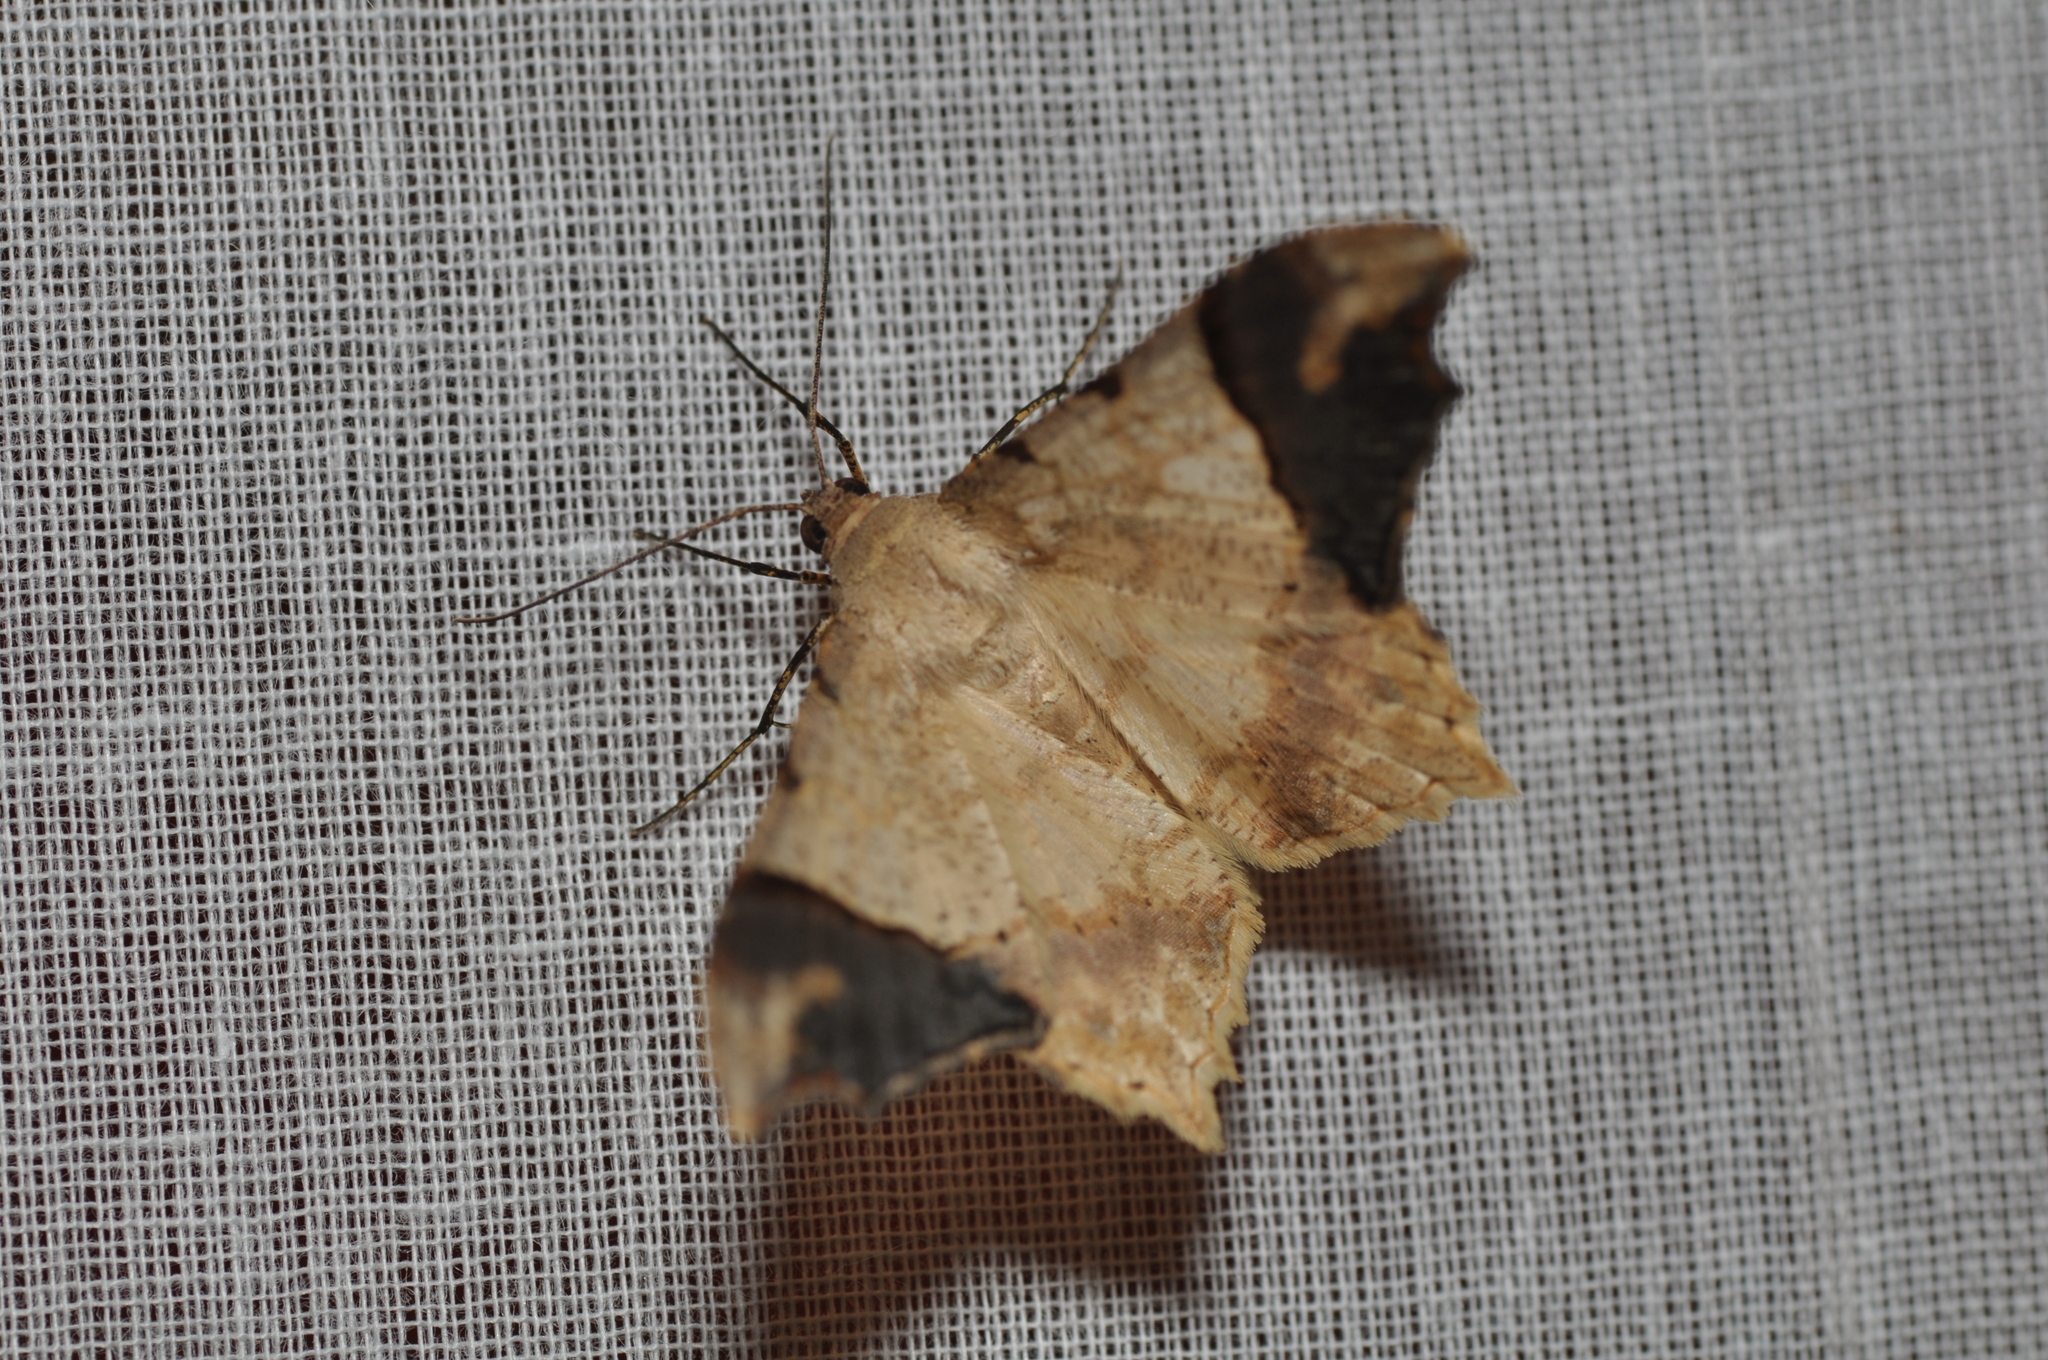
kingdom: Animalia
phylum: Arthropoda
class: Insecta
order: Lepidoptera
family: Geometridae
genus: Macaria
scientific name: Macaria gambarina
